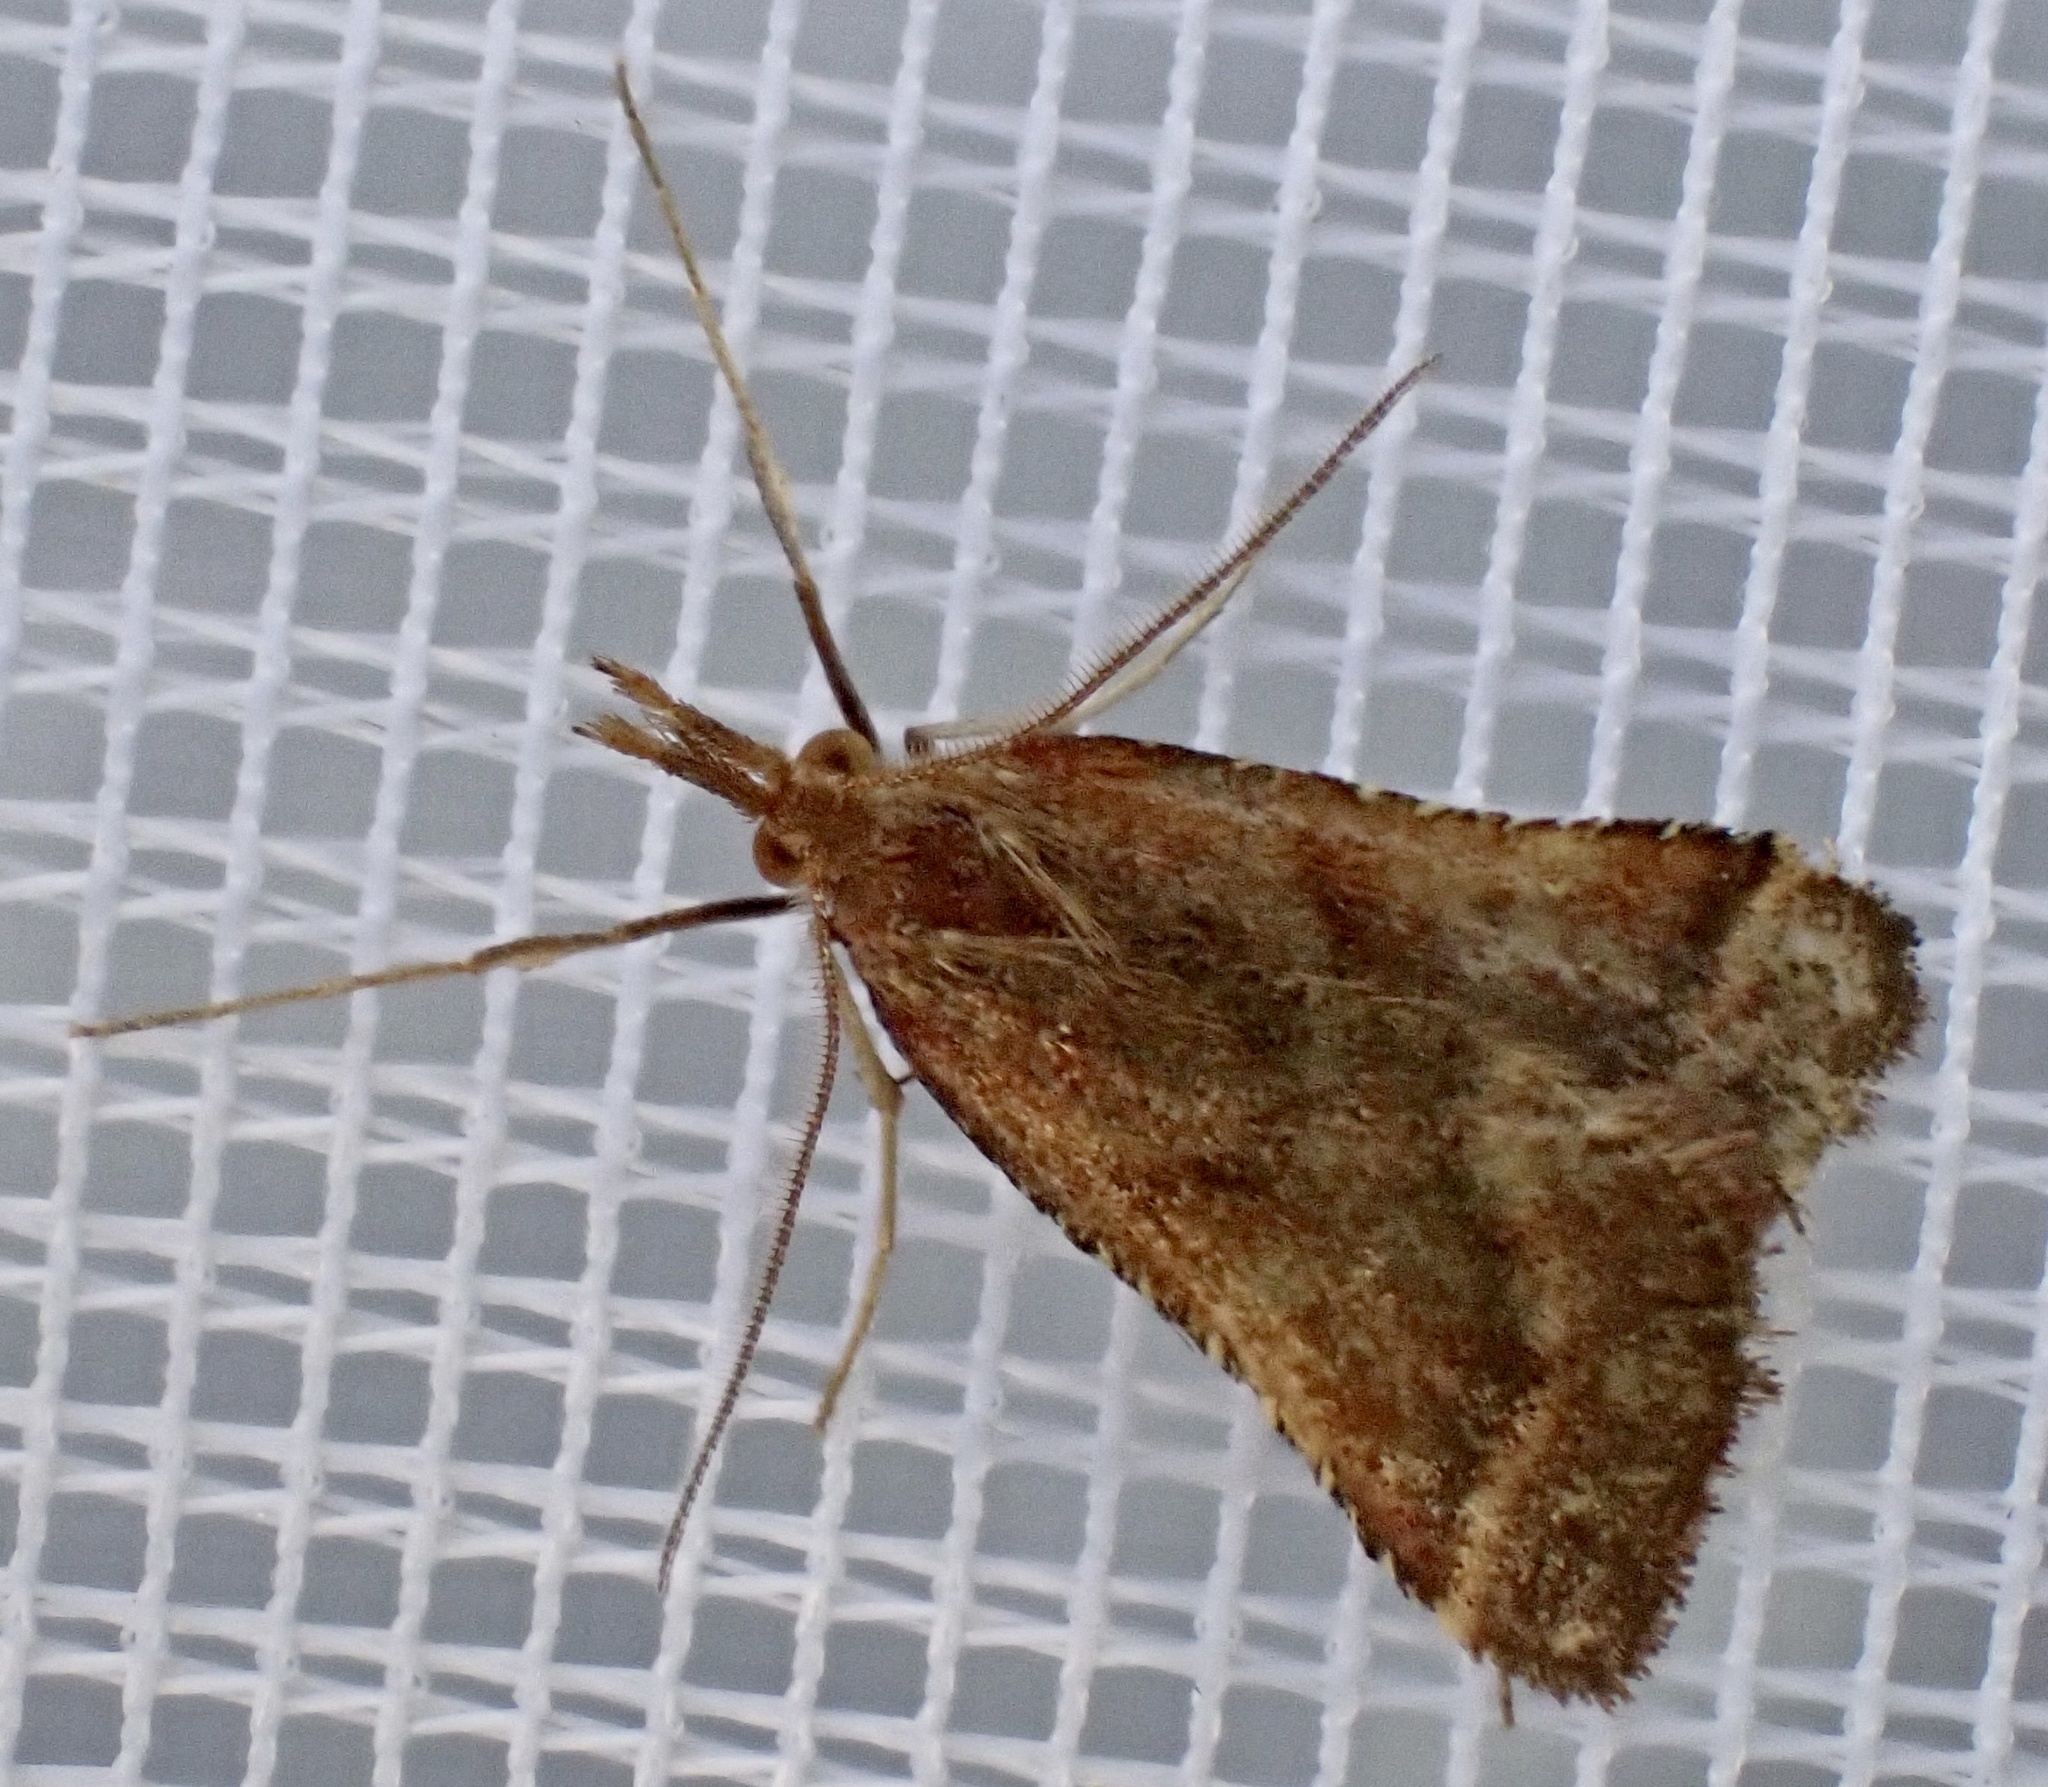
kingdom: Animalia
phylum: Arthropoda
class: Insecta
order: Lepidoptera
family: Pyralidae
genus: Synaphe
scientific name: Synaphe punctalis
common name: Long-legged tabby
